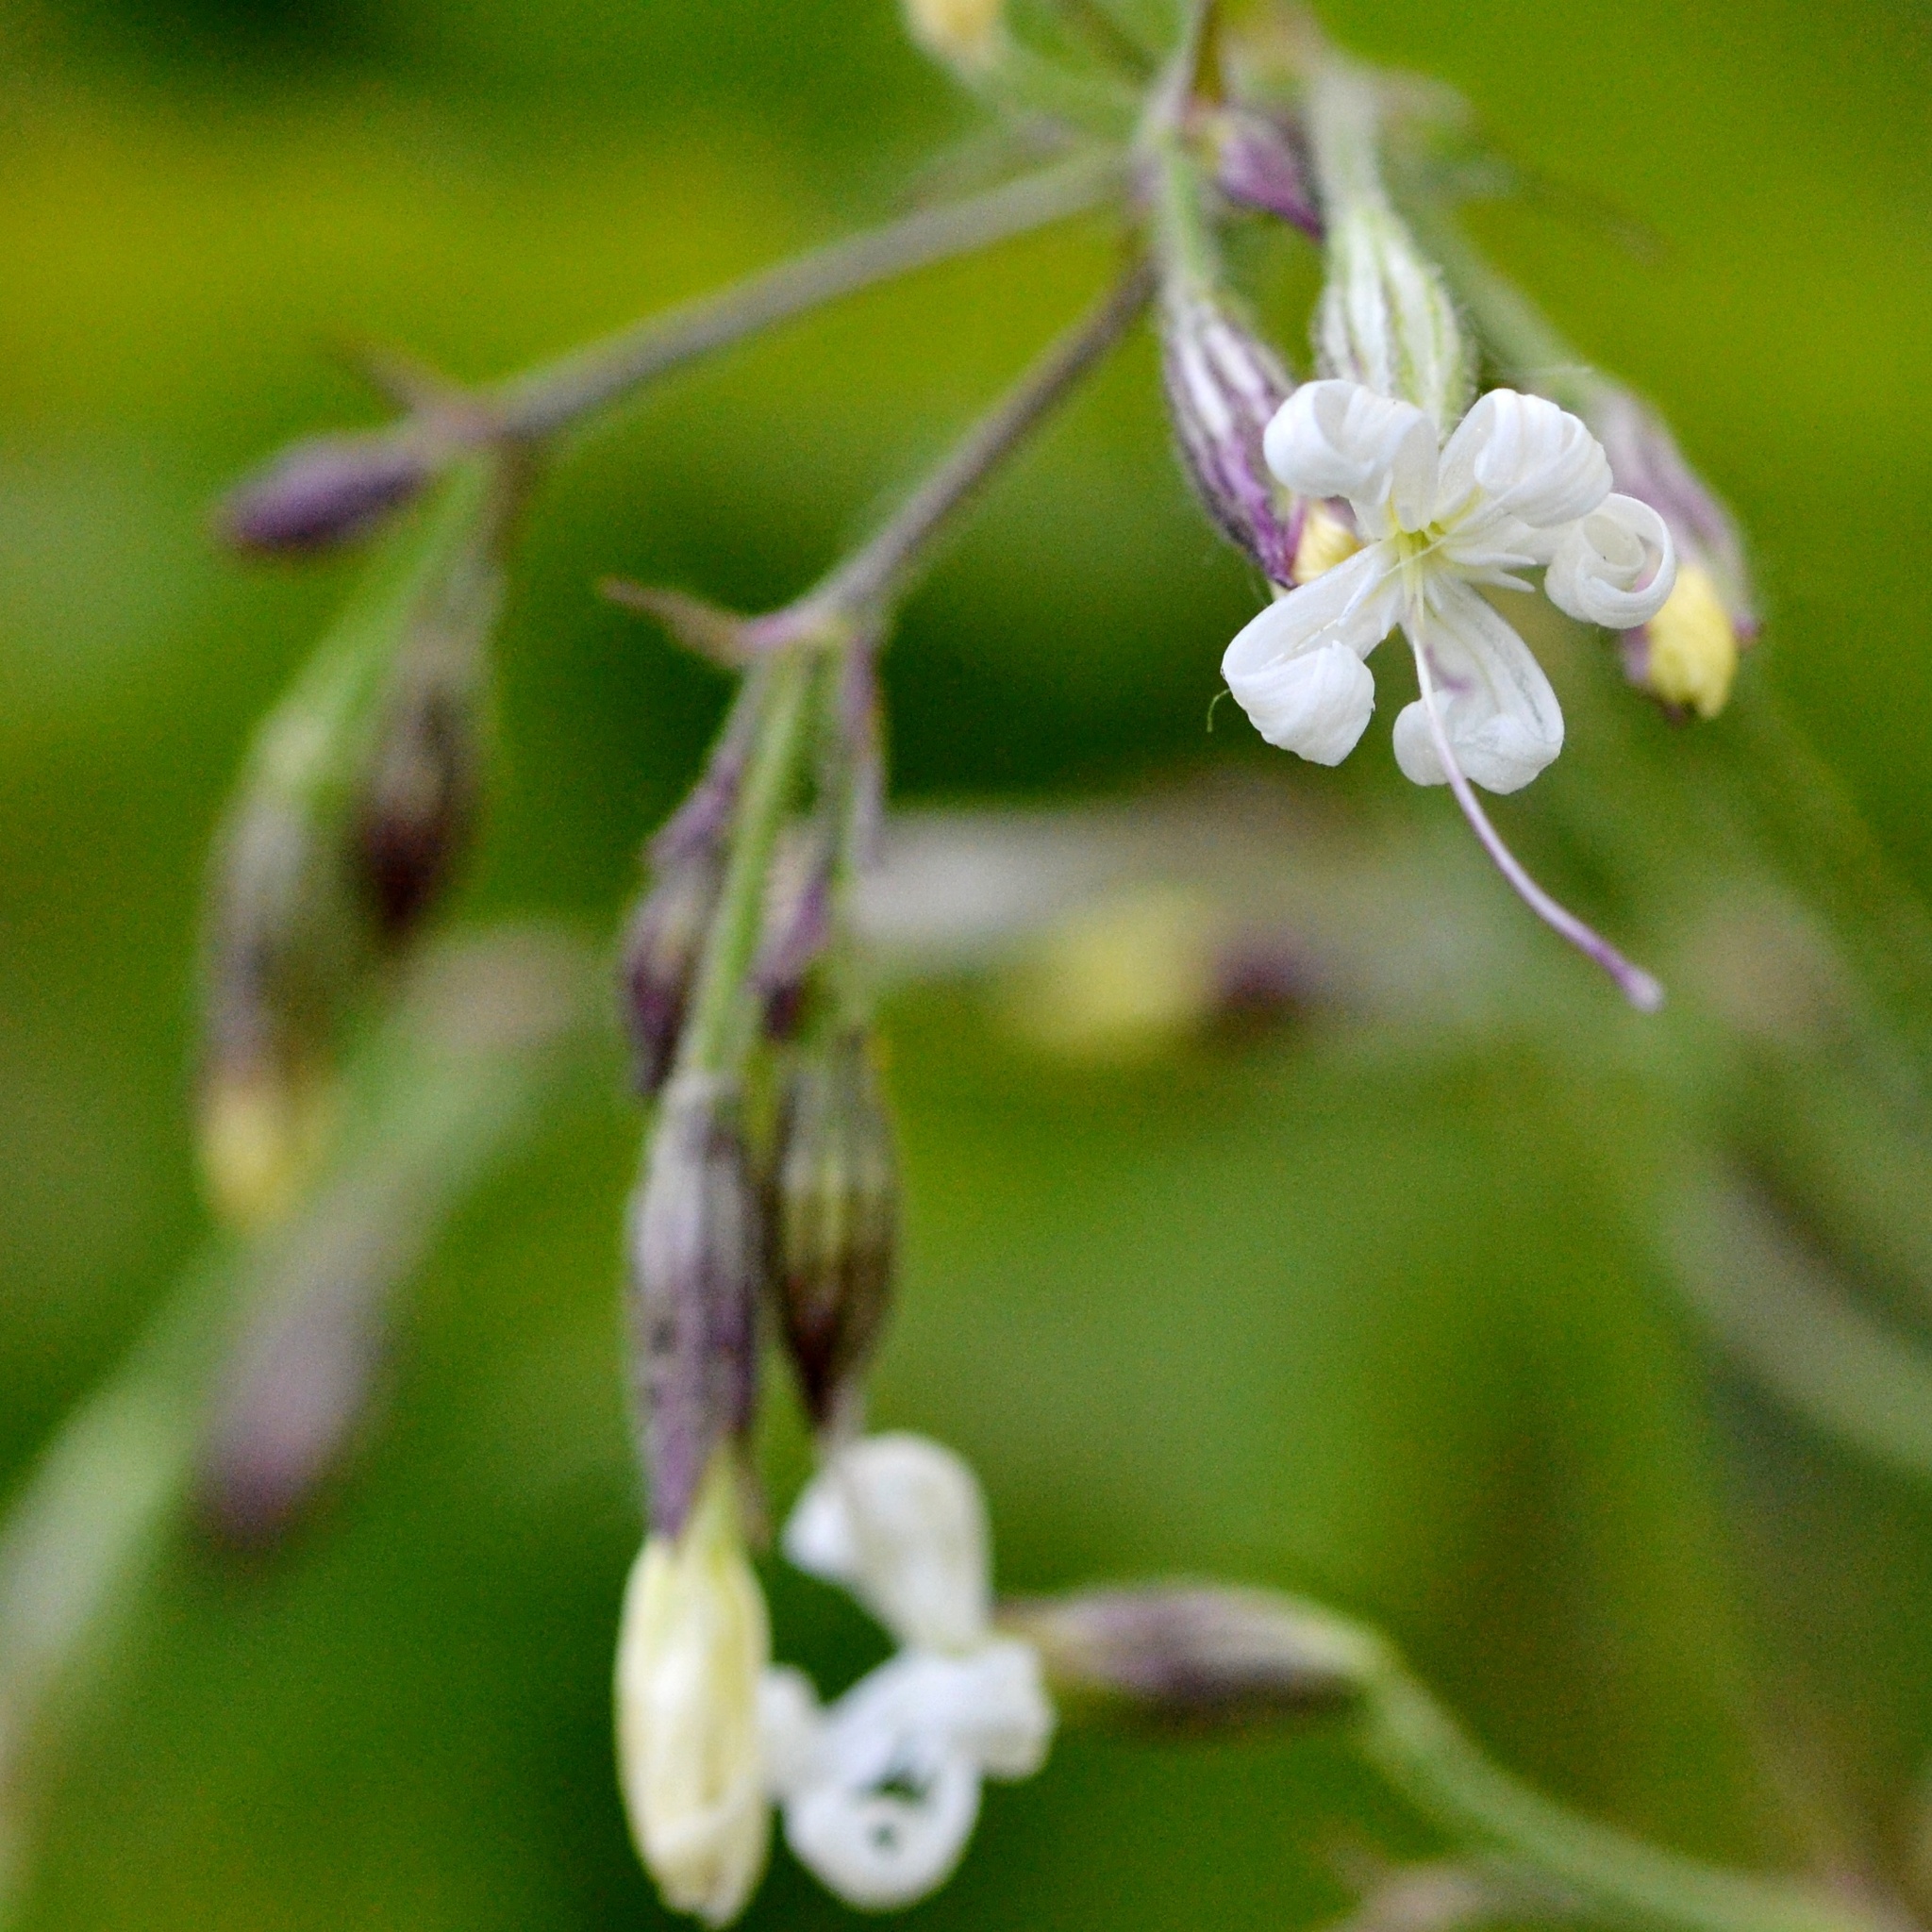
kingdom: Plantae
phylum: Tracheophyta
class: Magnoliopsida
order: Caryophyllales
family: Caryophyllaceae
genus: Silene
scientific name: Silene nutans
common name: Nottingham catchfly
